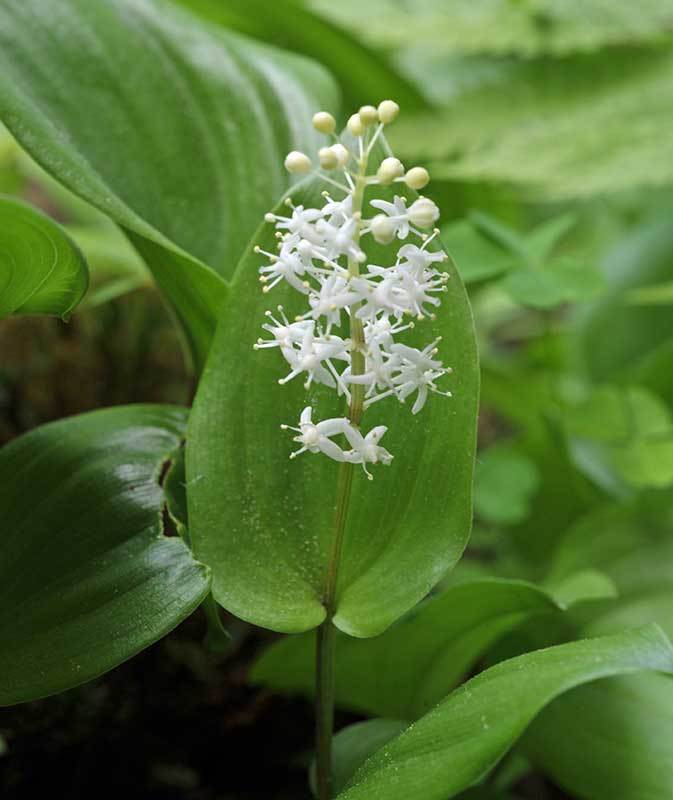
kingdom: Plantae
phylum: Tracheophyta
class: Liliopsida
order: Asparagales
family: Asparagaceae
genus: Maianthemum
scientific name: Maianthemum canadense
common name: False lily-of-the-valley
